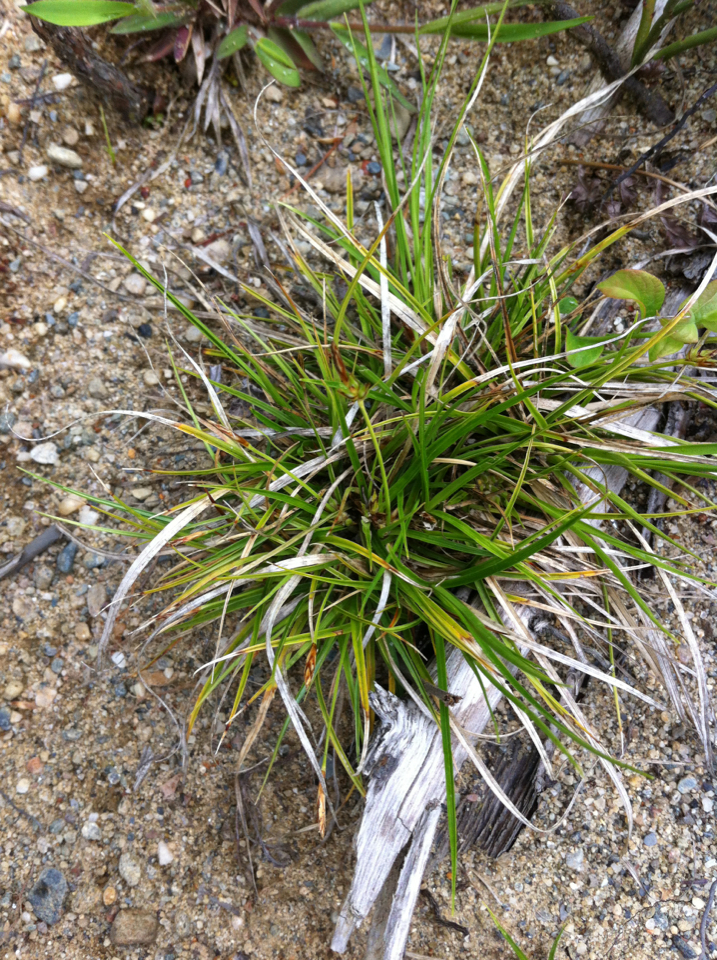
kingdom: Plantae
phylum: Tracheophyta
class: Liliopsida
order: Poales
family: Cyperaceae
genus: Carex
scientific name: Carex tonsa
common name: Bald sedge
